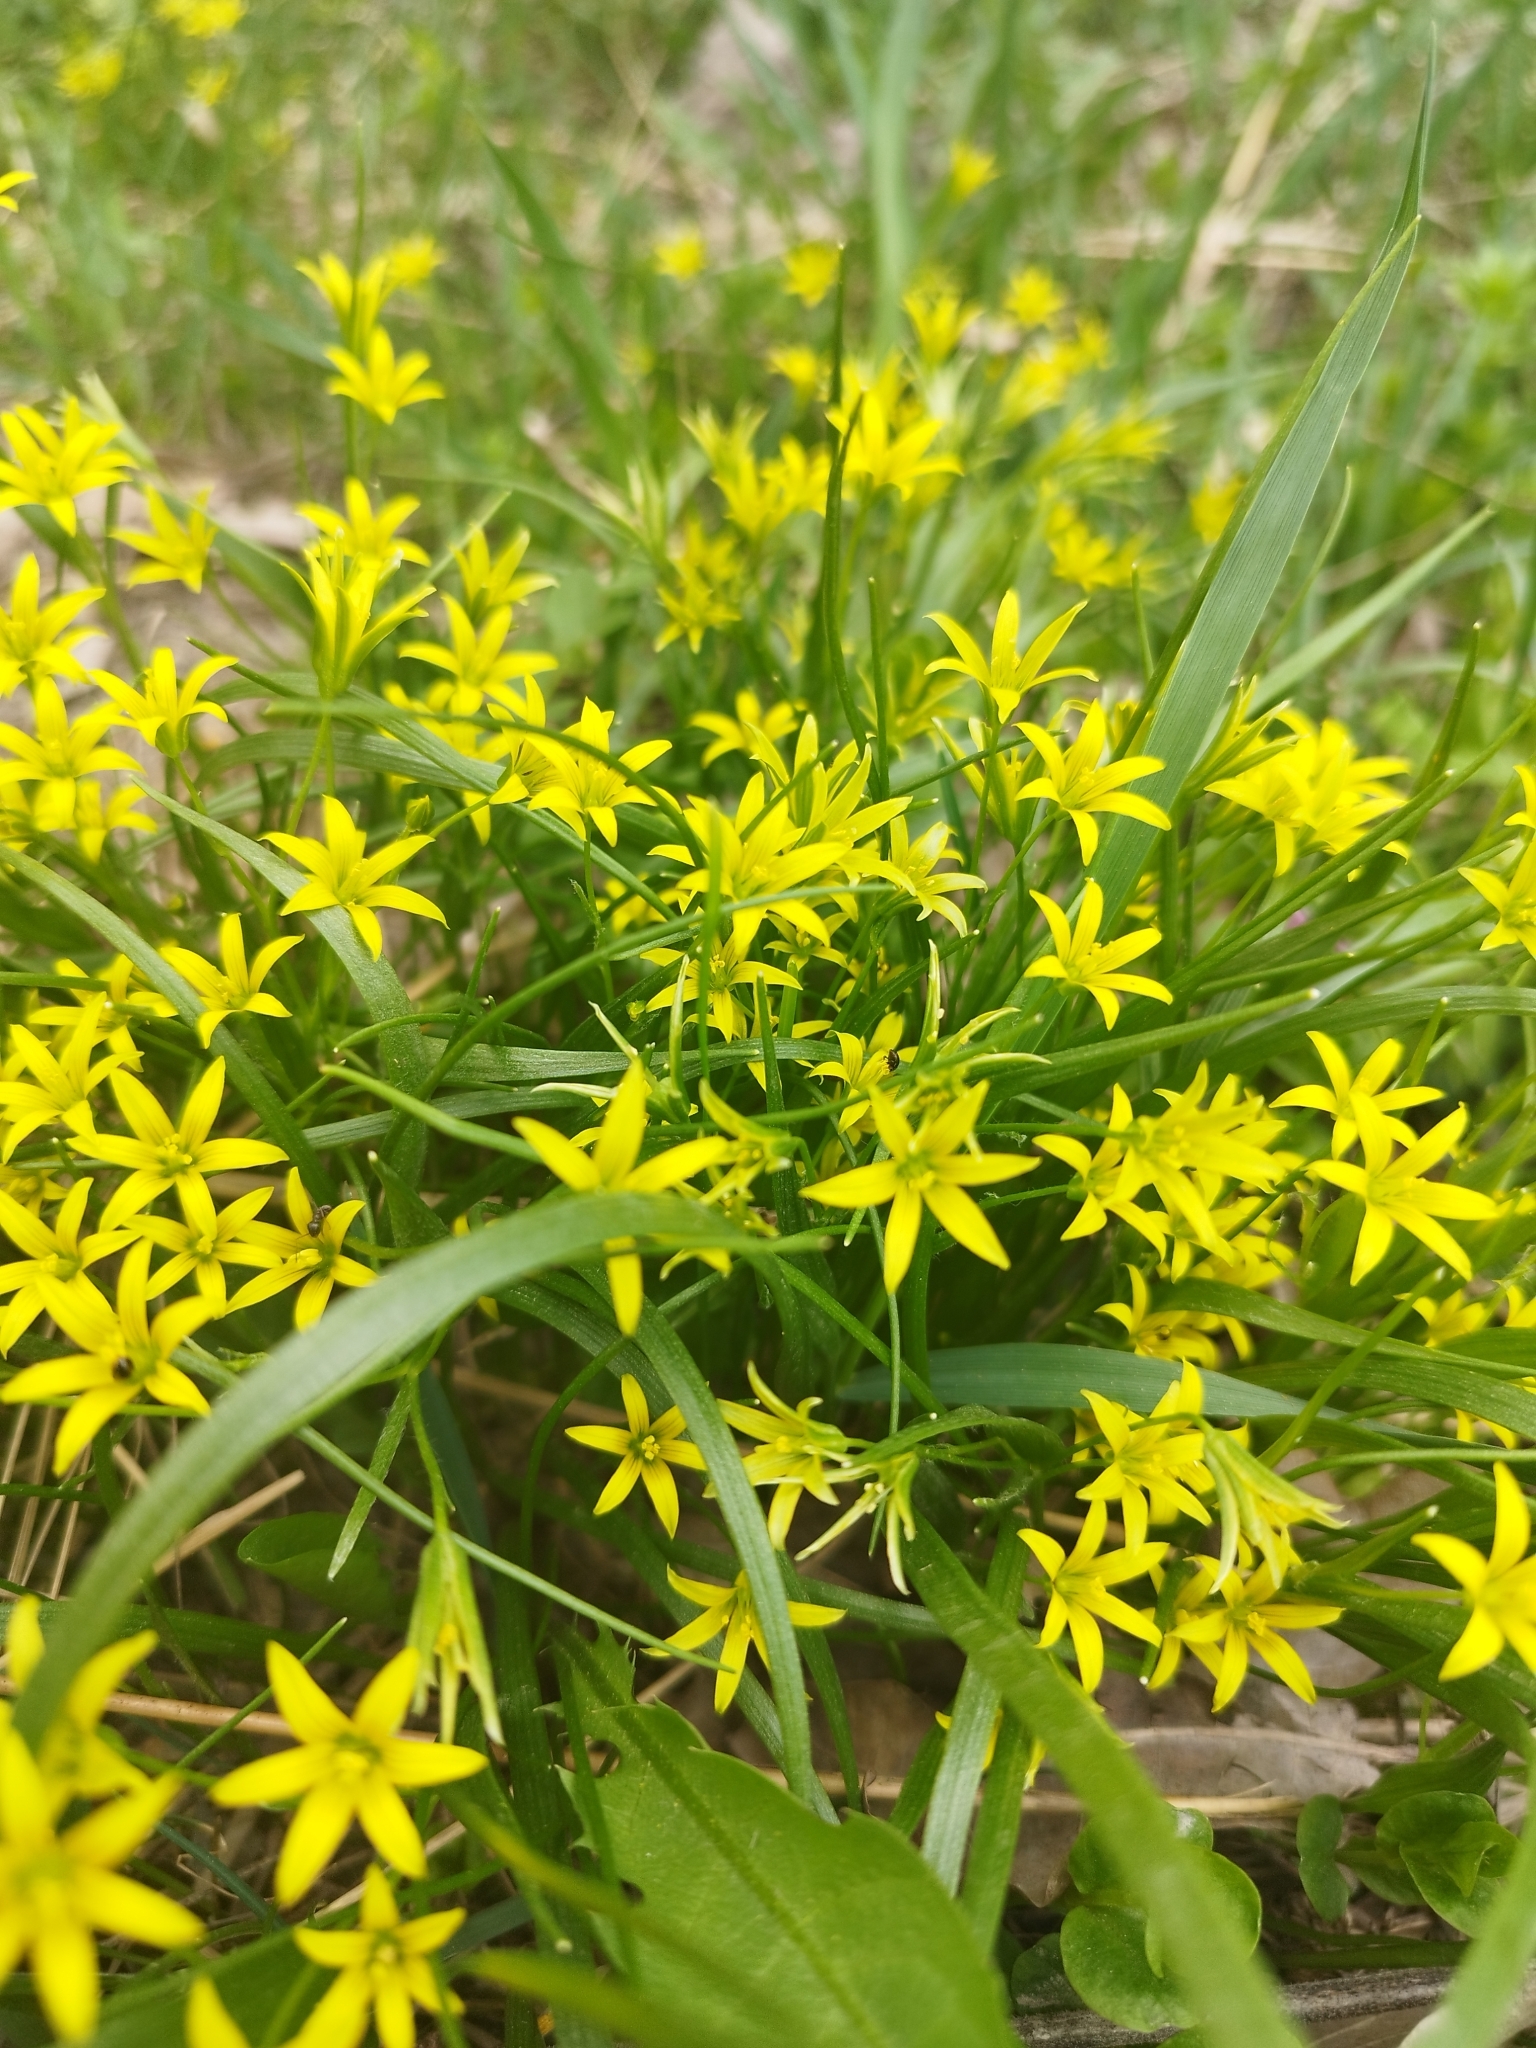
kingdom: Plantae
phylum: Tracheophyta
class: Liliopsida
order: Liliales
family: Liliaceae
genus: Gagea
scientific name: Gagea minima
